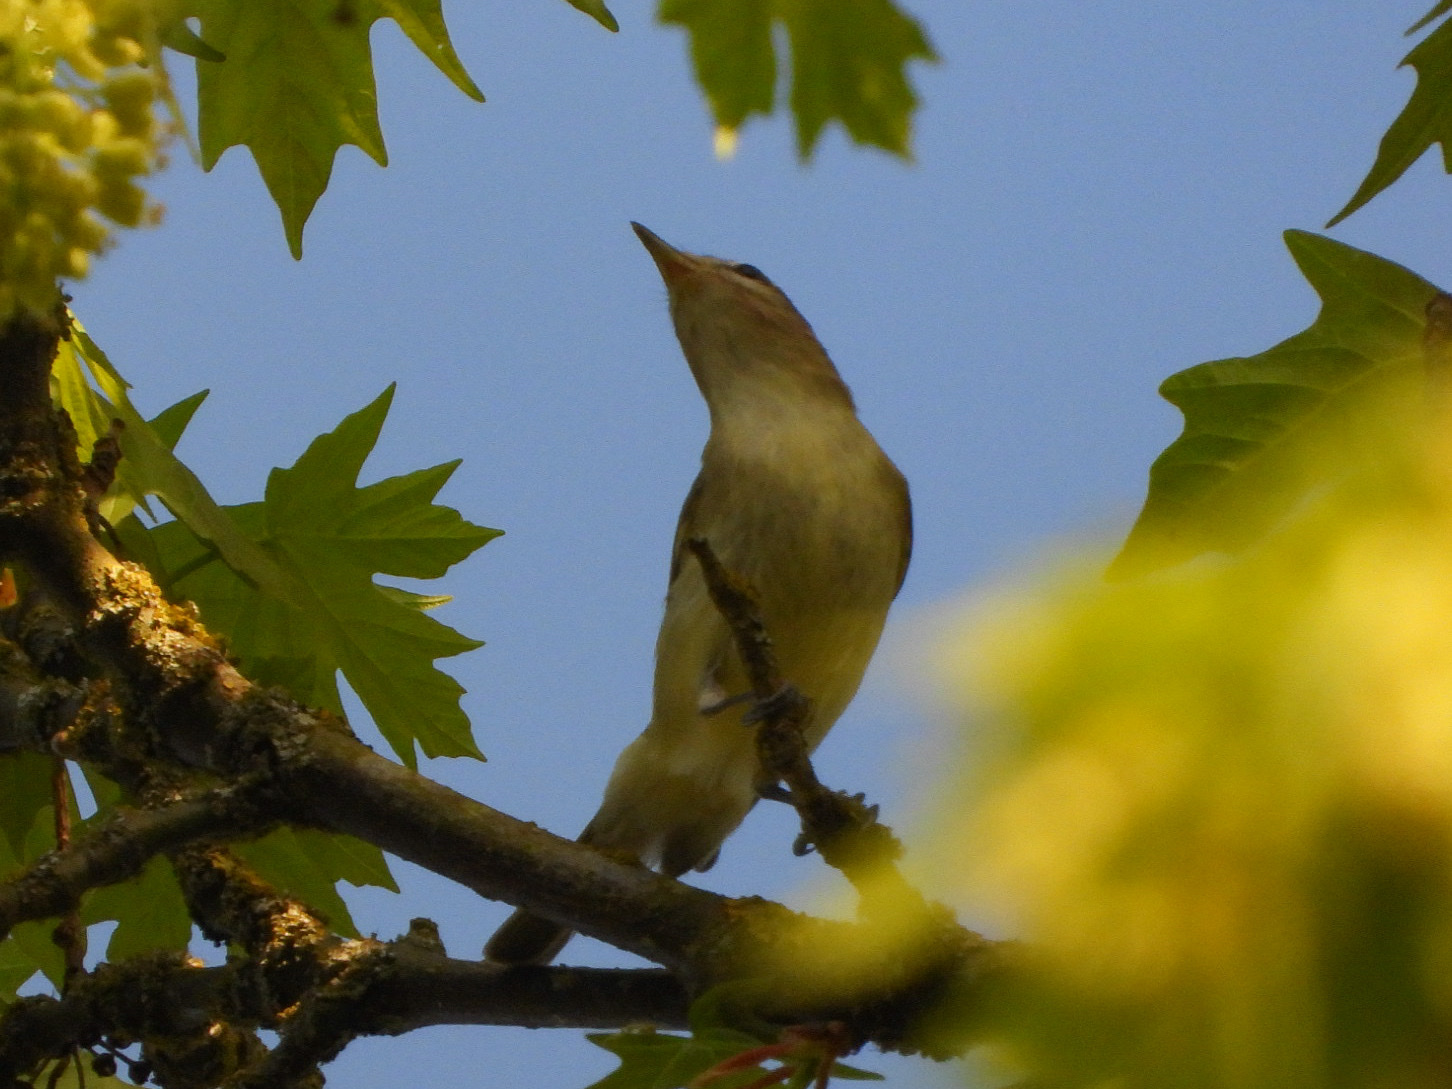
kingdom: Animalia
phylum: Chordata
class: Aves
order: Passeriformes
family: Vireonidae
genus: Vireo
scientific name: Vireo gilvus
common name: Warbling vireo
